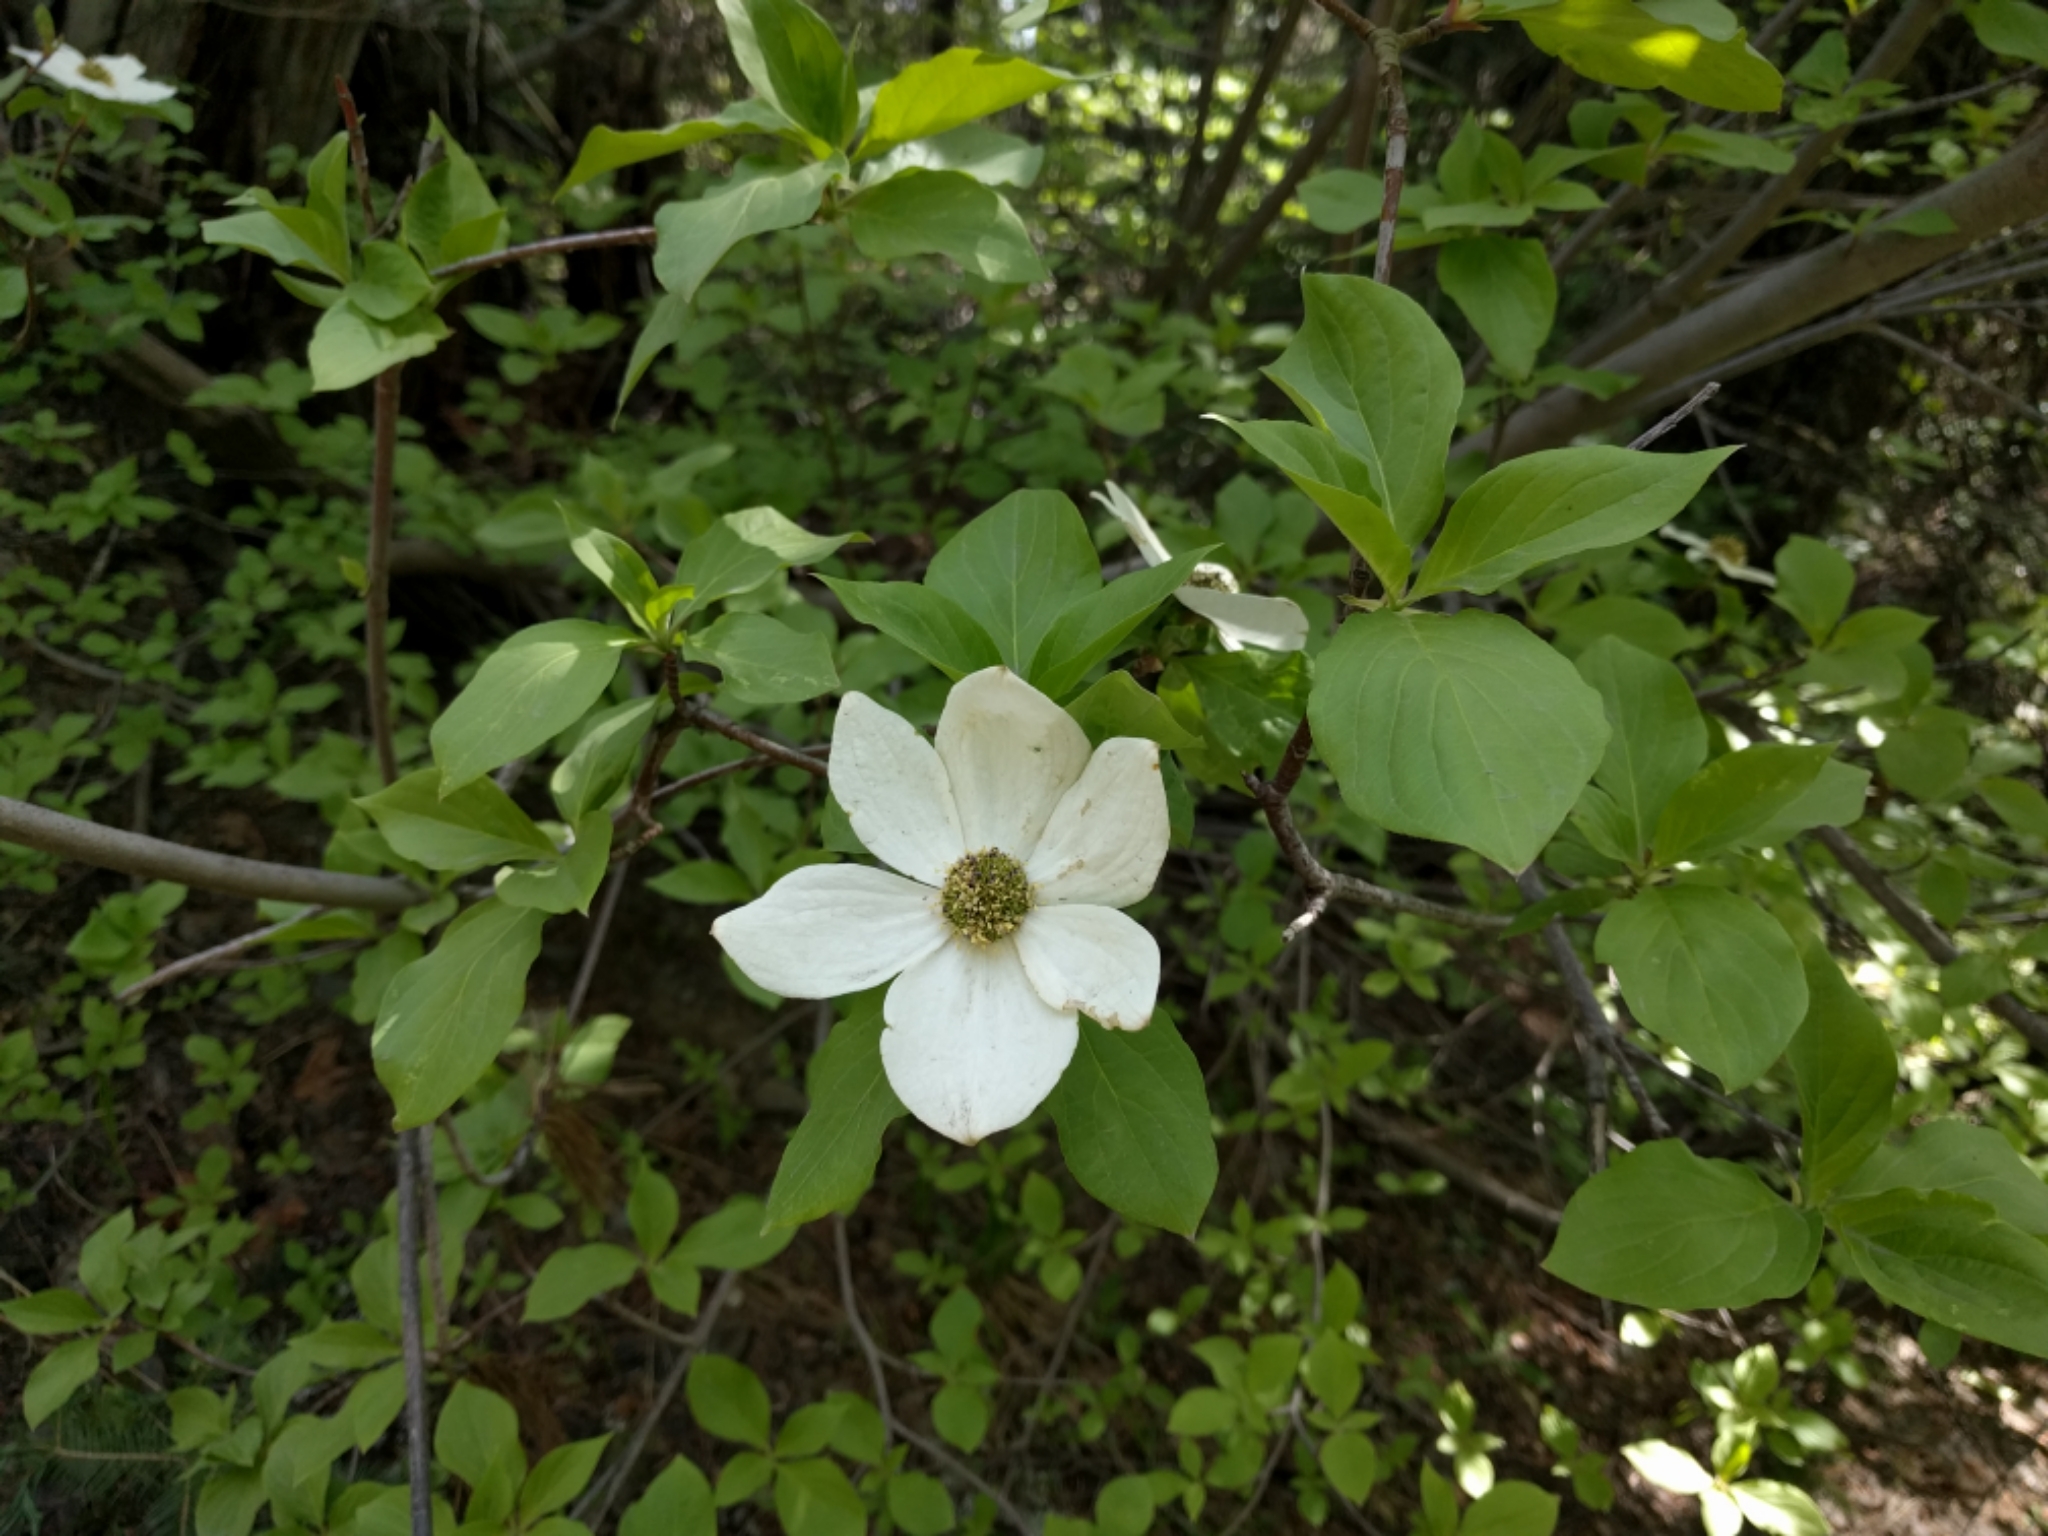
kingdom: Plantae
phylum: Tracheophyta
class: Magnoliopsida
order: Cornales
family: Cornaceae
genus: Cornus
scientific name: Cornus nuttallii
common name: Pacific dogwood
